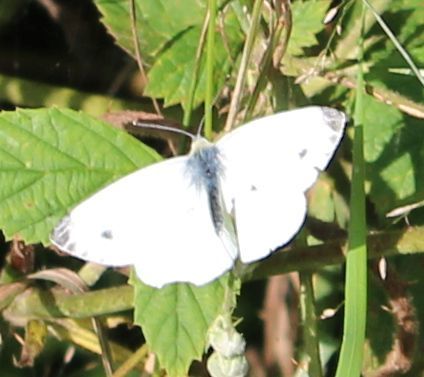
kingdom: Animalia
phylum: Arthropoda
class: Insecta
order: Lepidoptera
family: Pieridae
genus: Pieris
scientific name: Pieris napi
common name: Green-veined white
